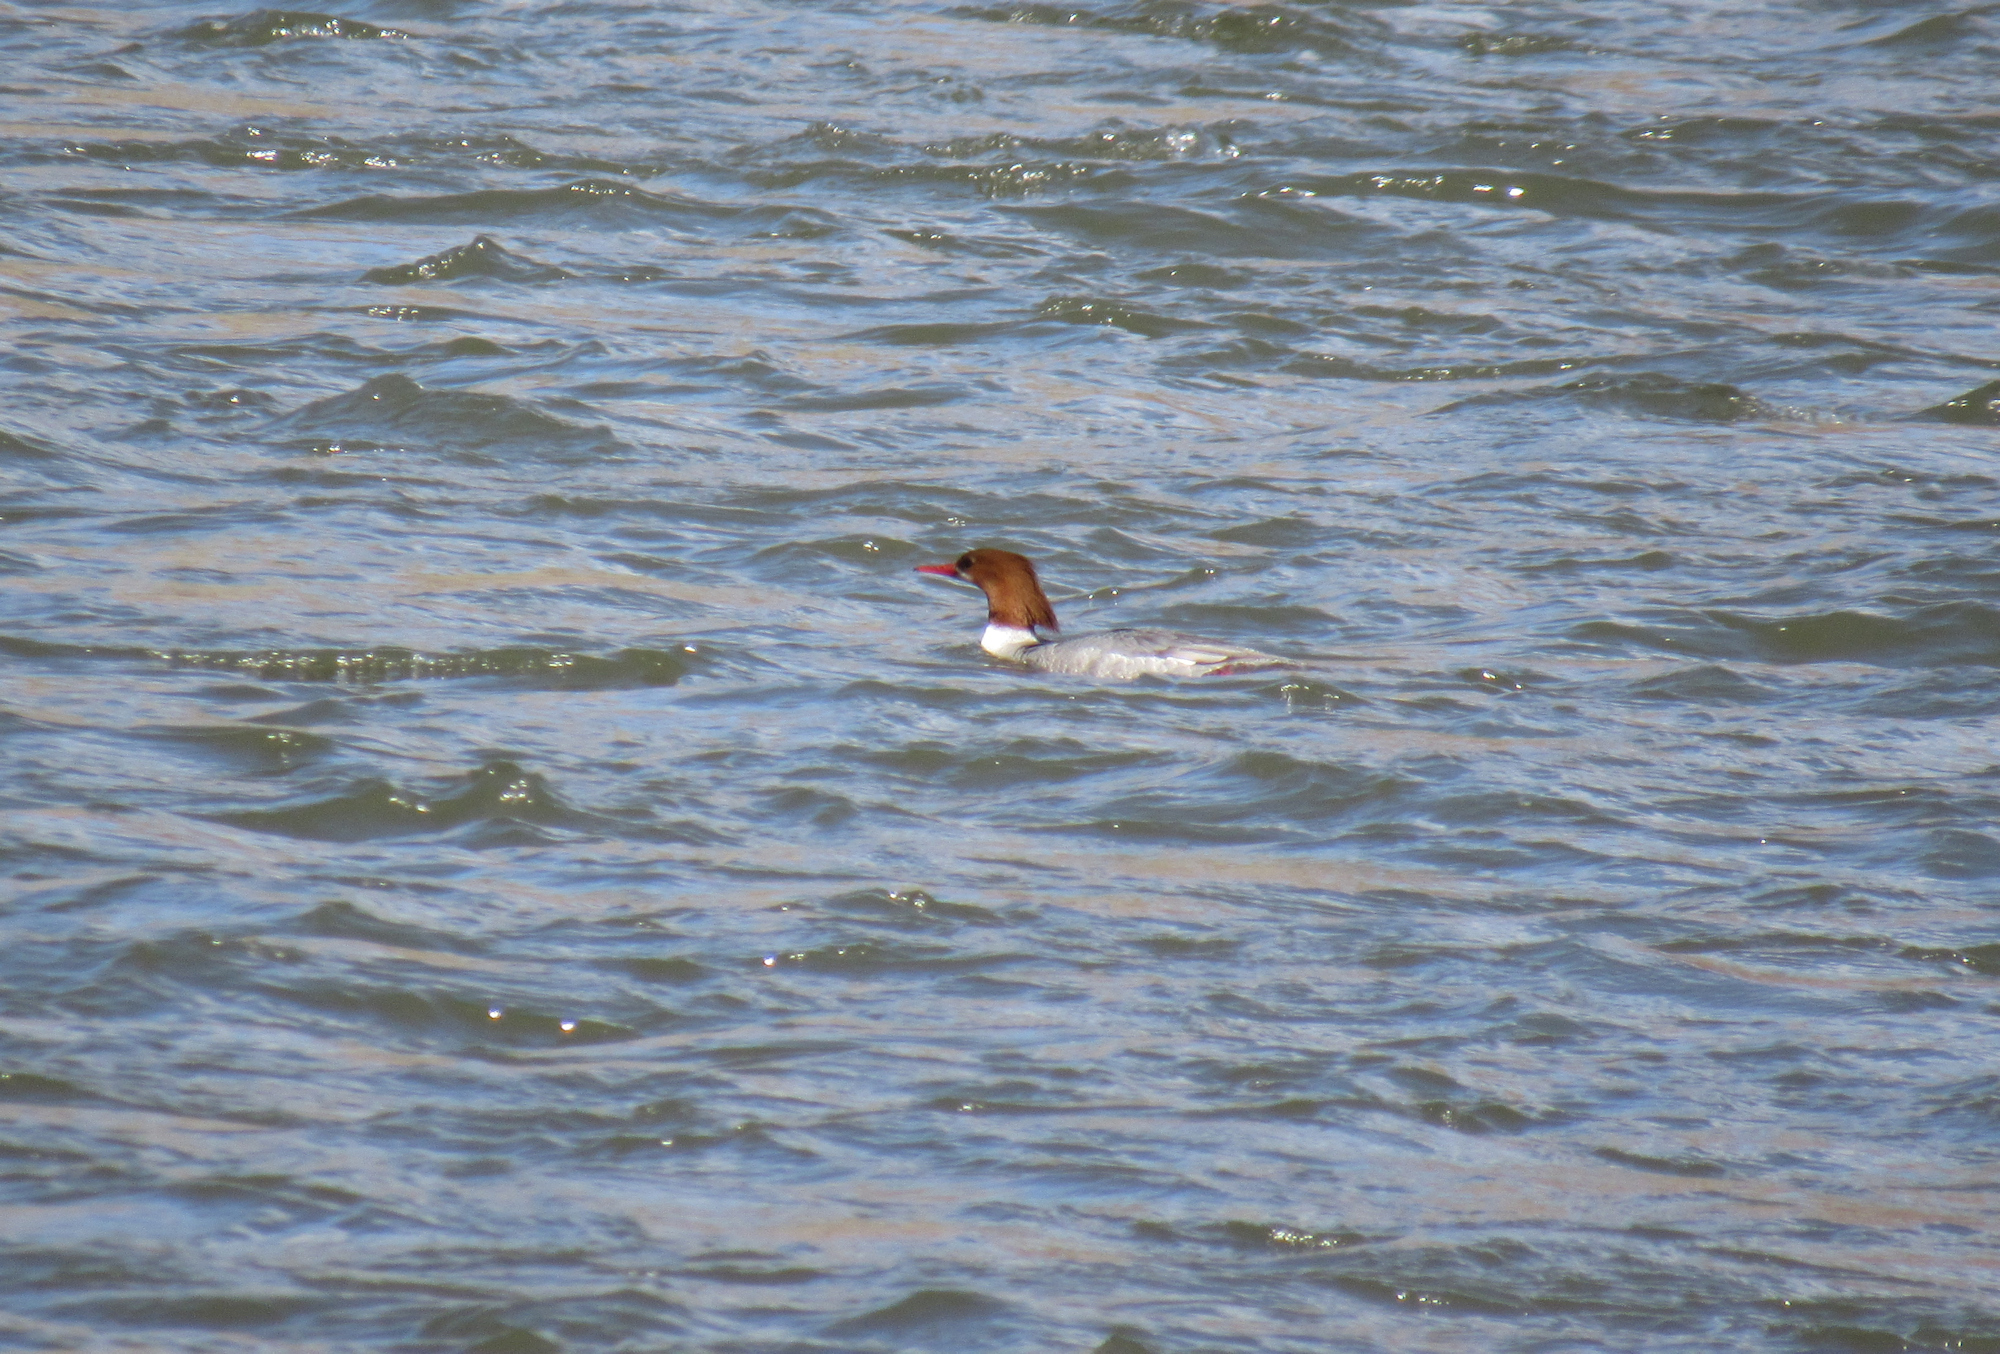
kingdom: Animalia
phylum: Chordata
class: Aves
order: Anseriformes
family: Anatidae
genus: Mergus
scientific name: Mergus merganser
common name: Common merganser
